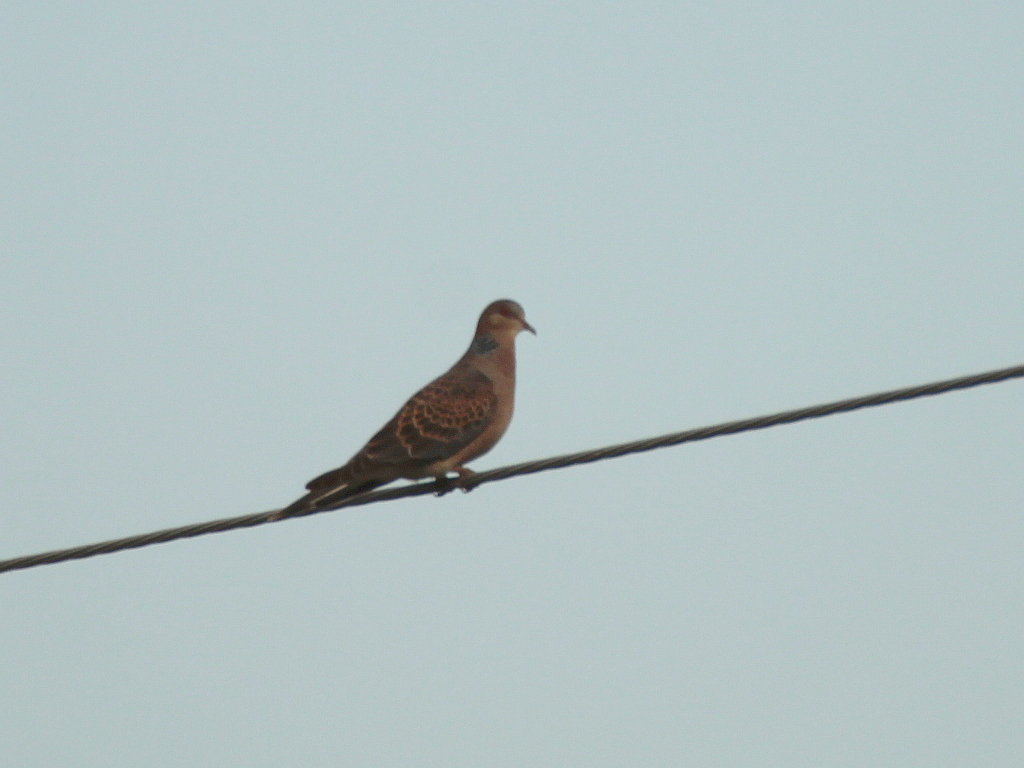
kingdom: Animalia
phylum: Chordata
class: Aves
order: Columbiformes
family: Columbidae
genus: Streptopelia
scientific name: Streptopelia orientalis
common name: Oriental turtle dove
